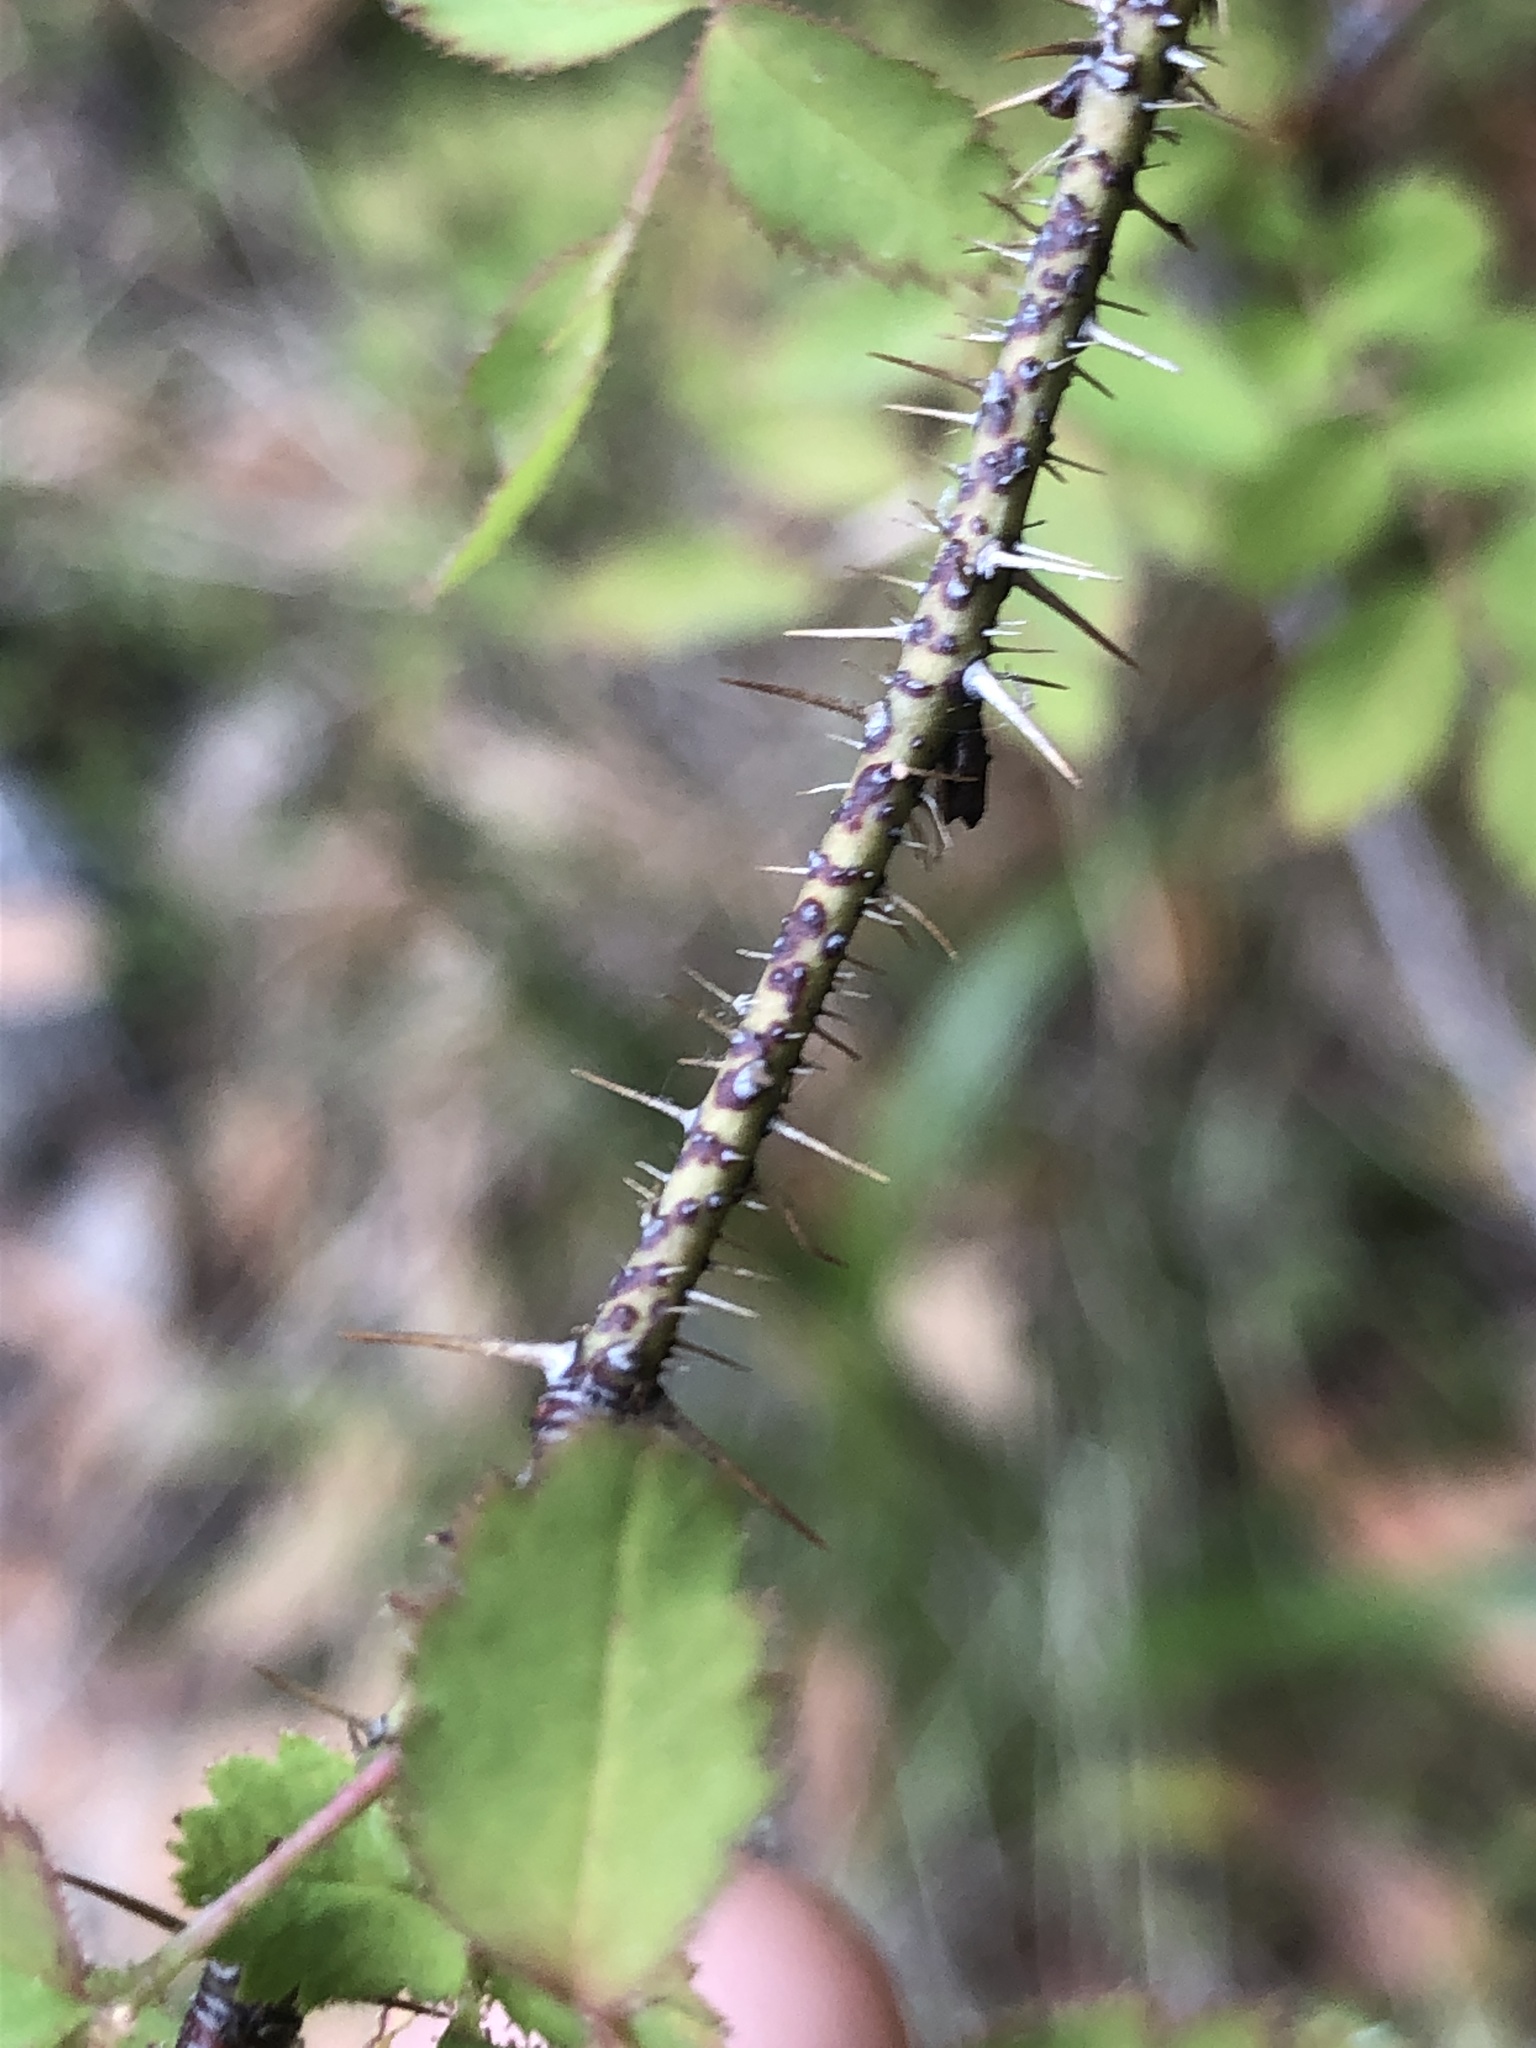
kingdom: Plantae
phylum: Tracheophyta
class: Magnoliopsida
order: Rosales
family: Rosaceae
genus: Rosa
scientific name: Rosa gymnocarpa
